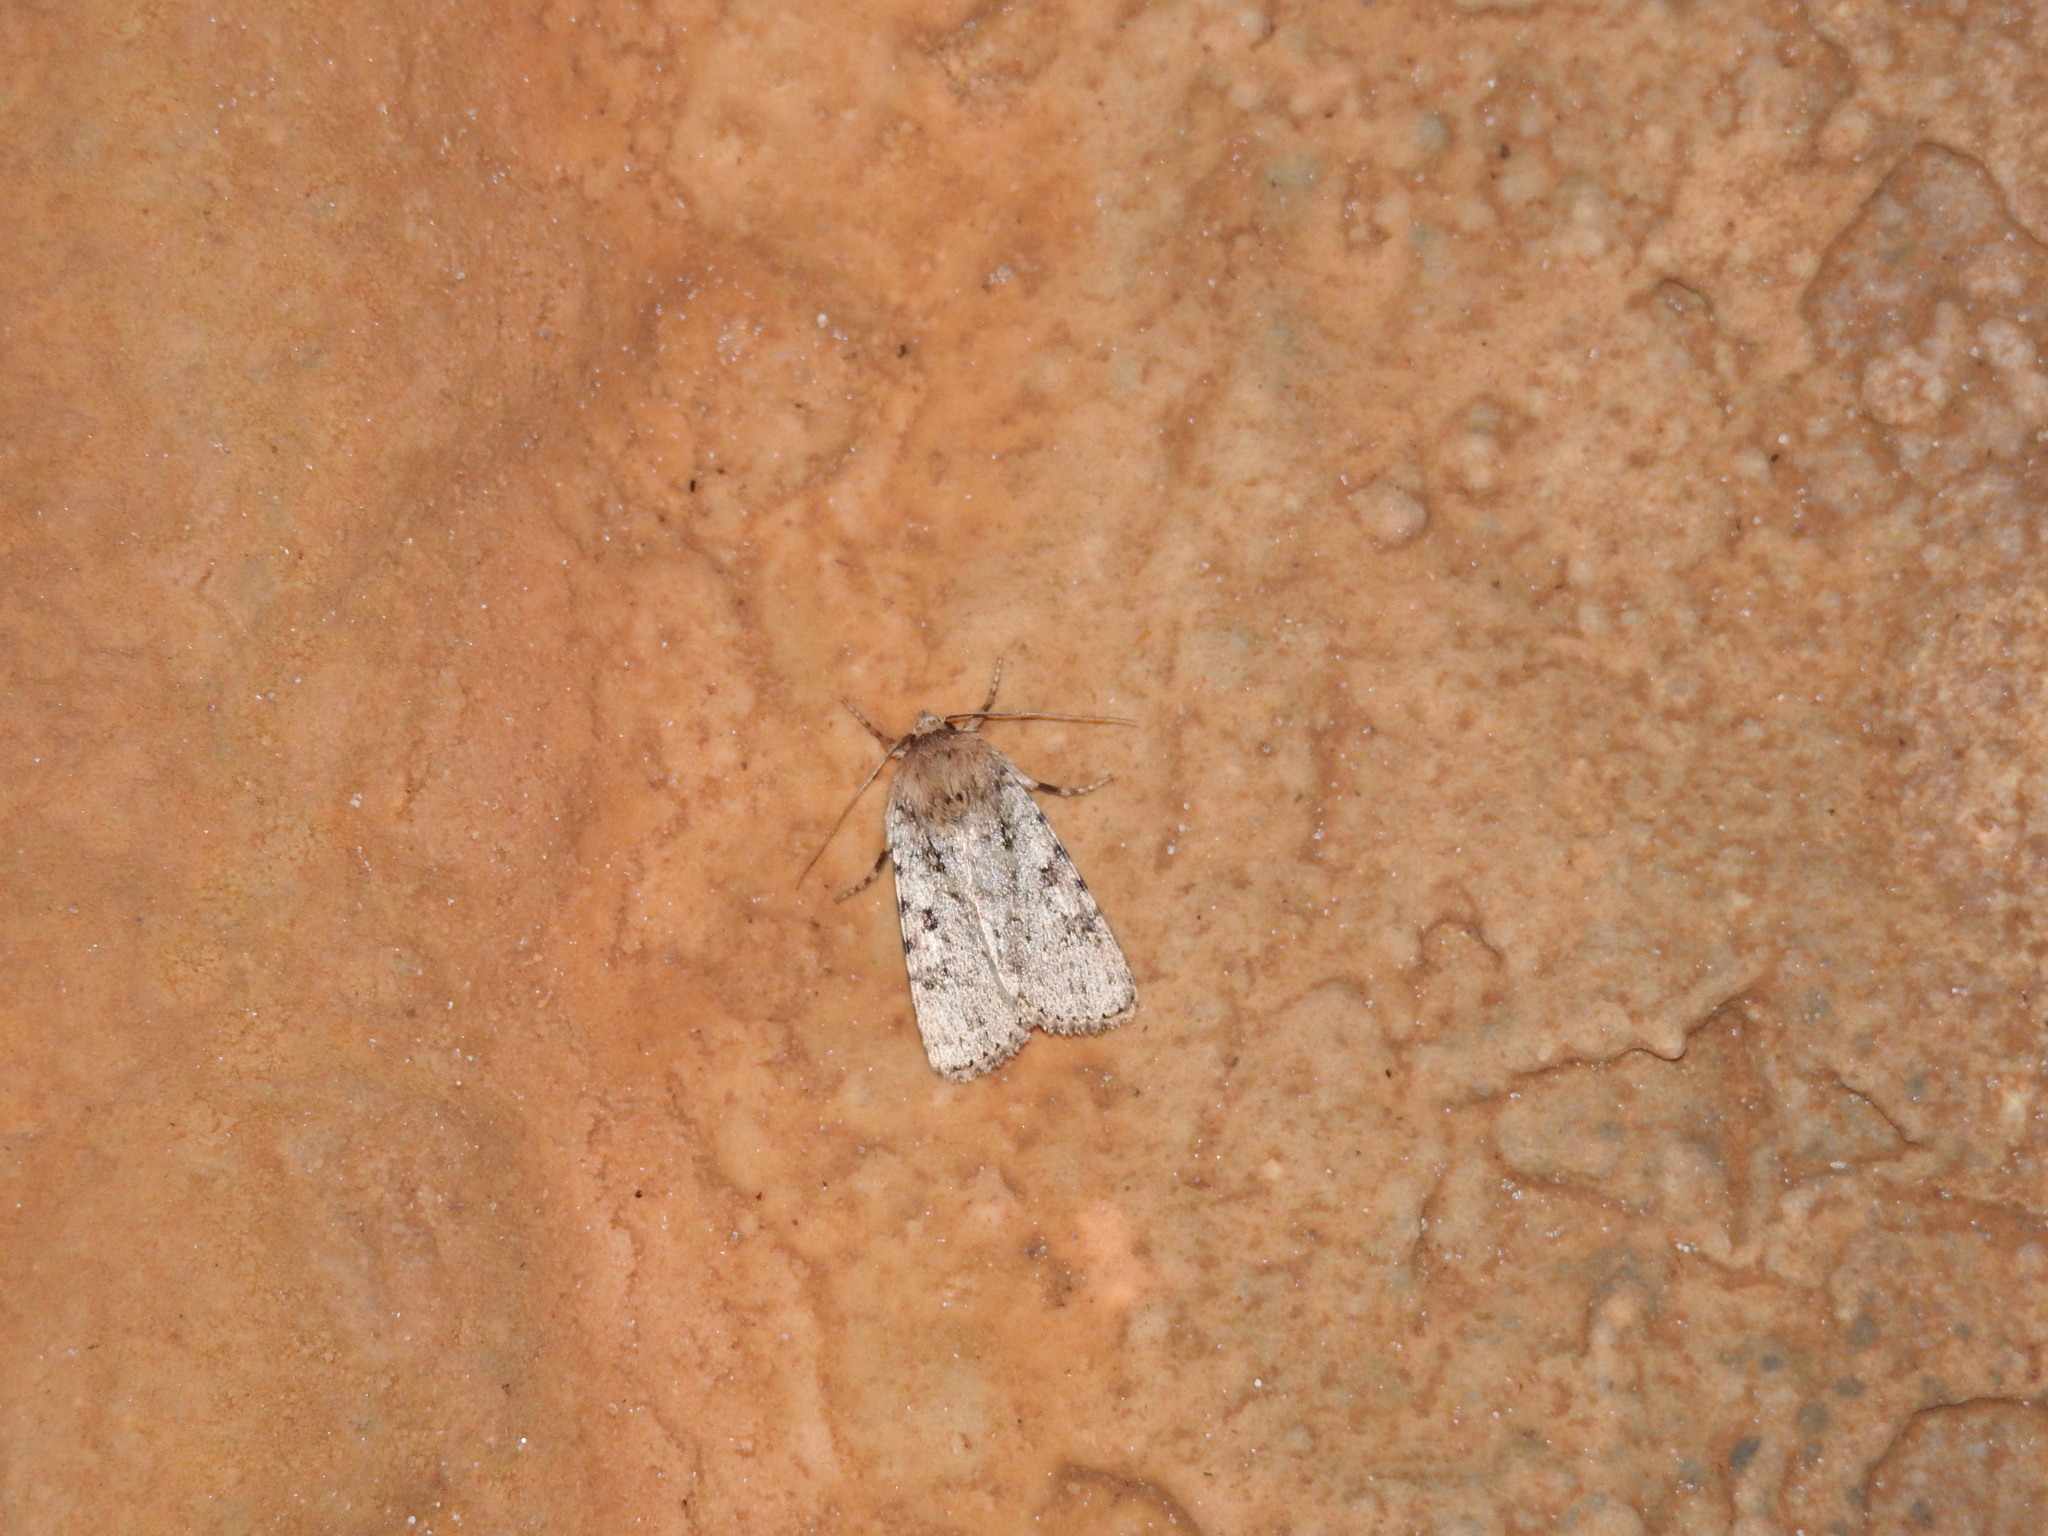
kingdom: Animalia
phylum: Arthropoda
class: Insecta
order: Lepidoptera
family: Noctuidae
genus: Amphipyra
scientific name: Amphipyra effusa
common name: Landguard ochre
